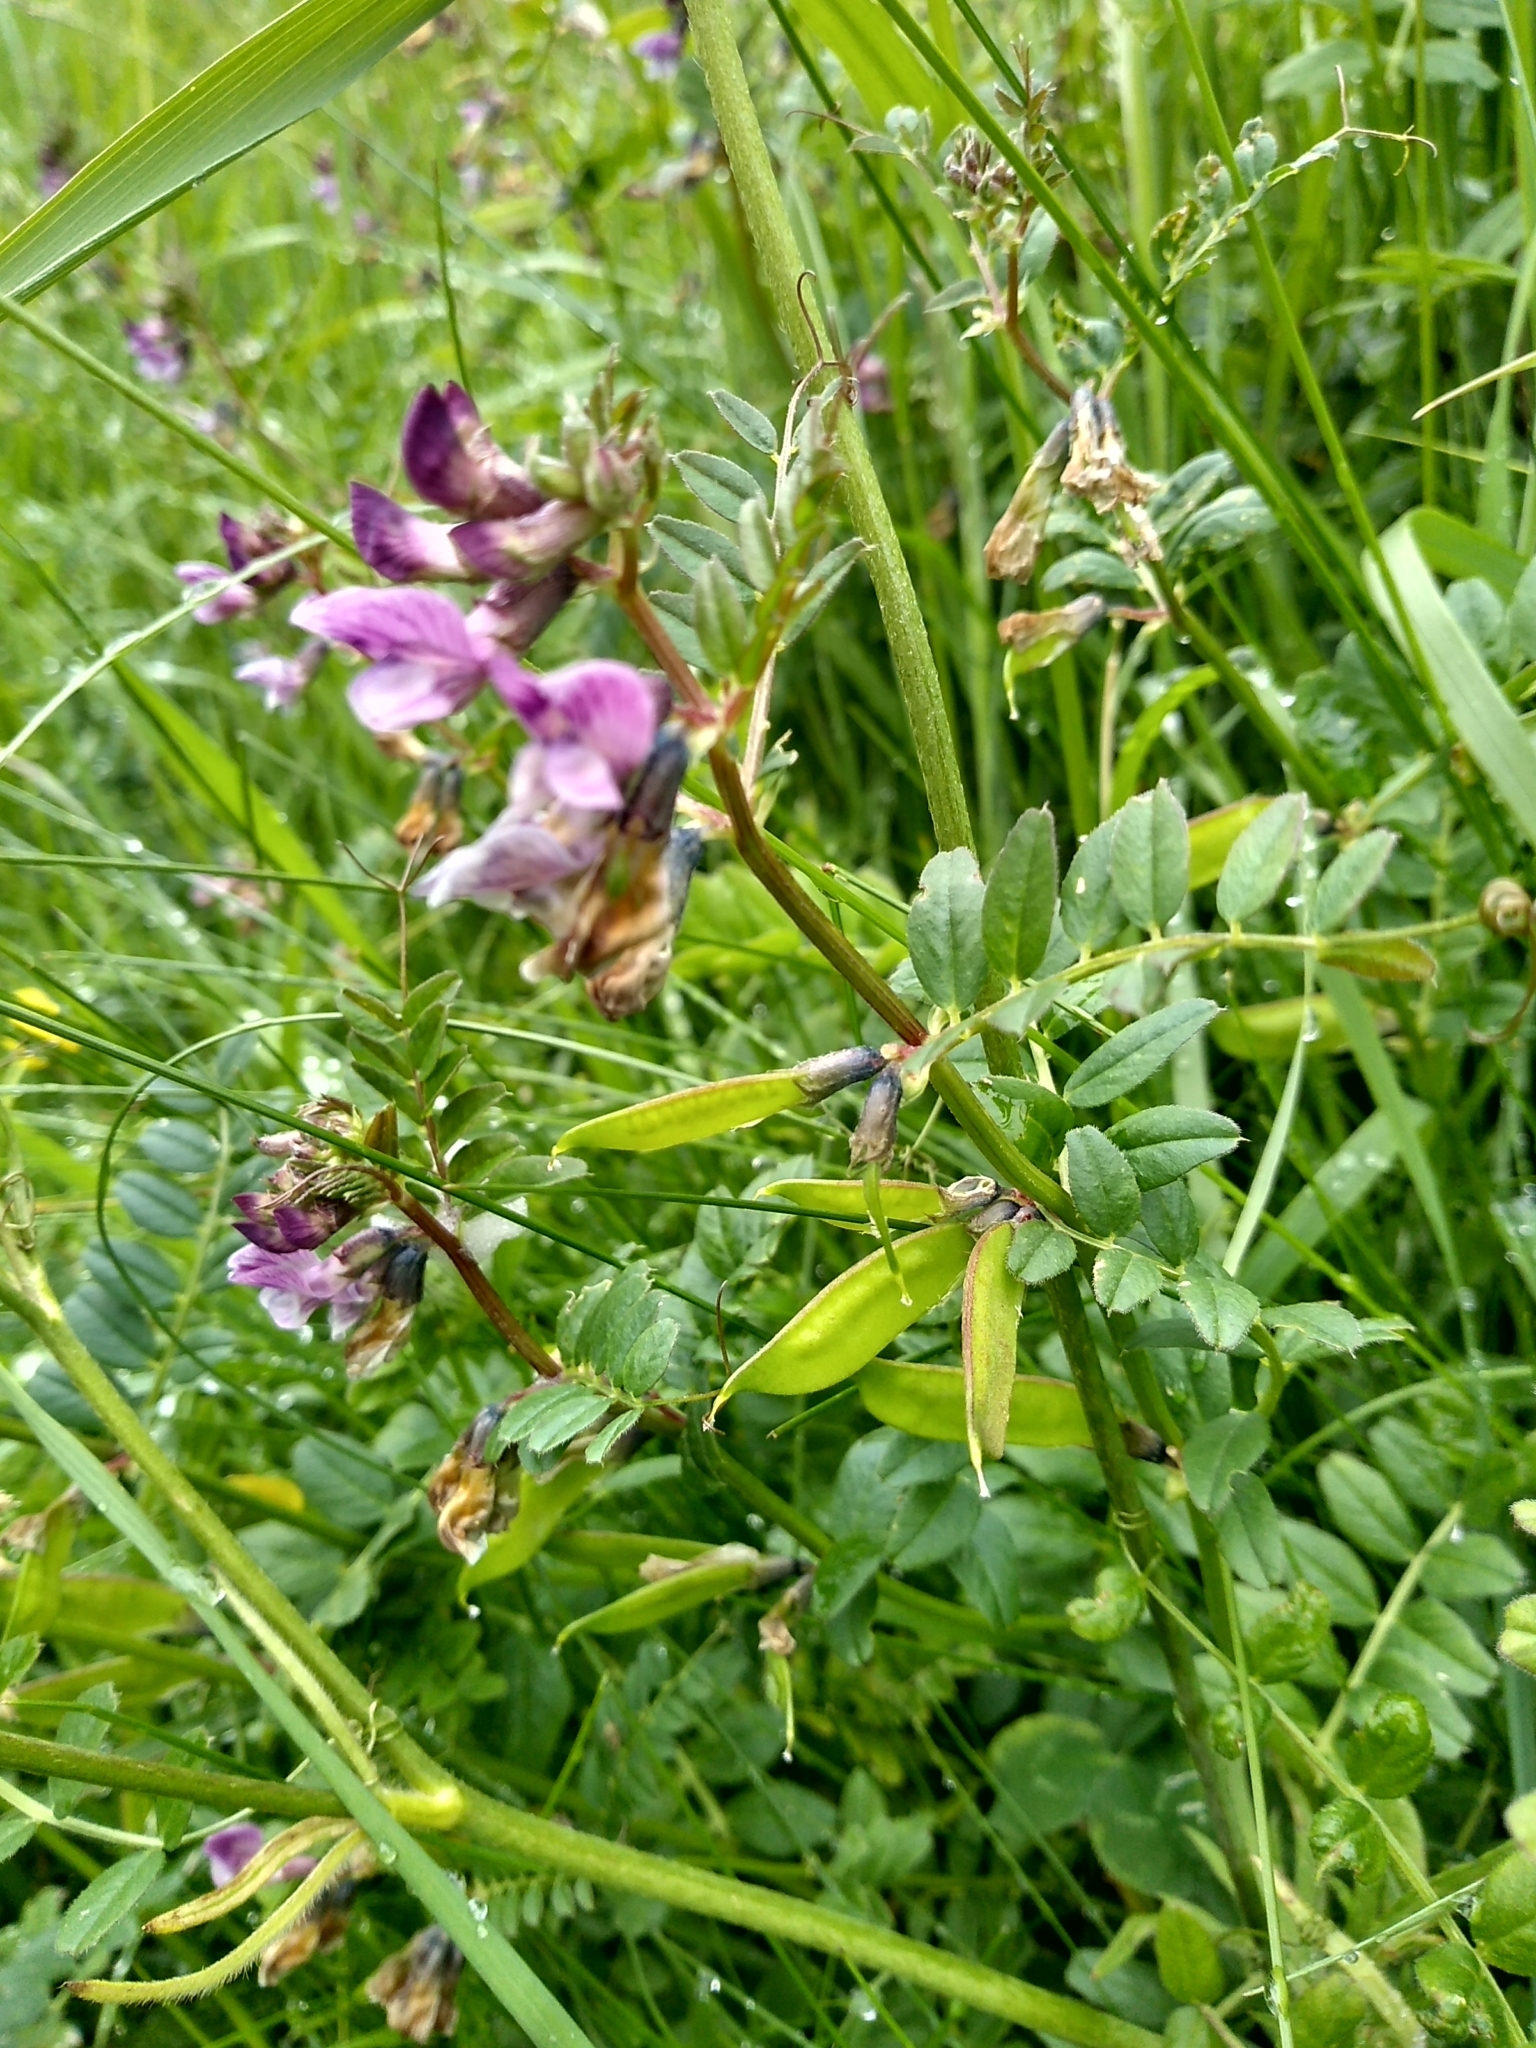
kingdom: Plantae
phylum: Tracheophyta
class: Magnoliopsida
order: Fabales
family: Fabaceae
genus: Vicia
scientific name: Vicia sepium
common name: Bush vetch
